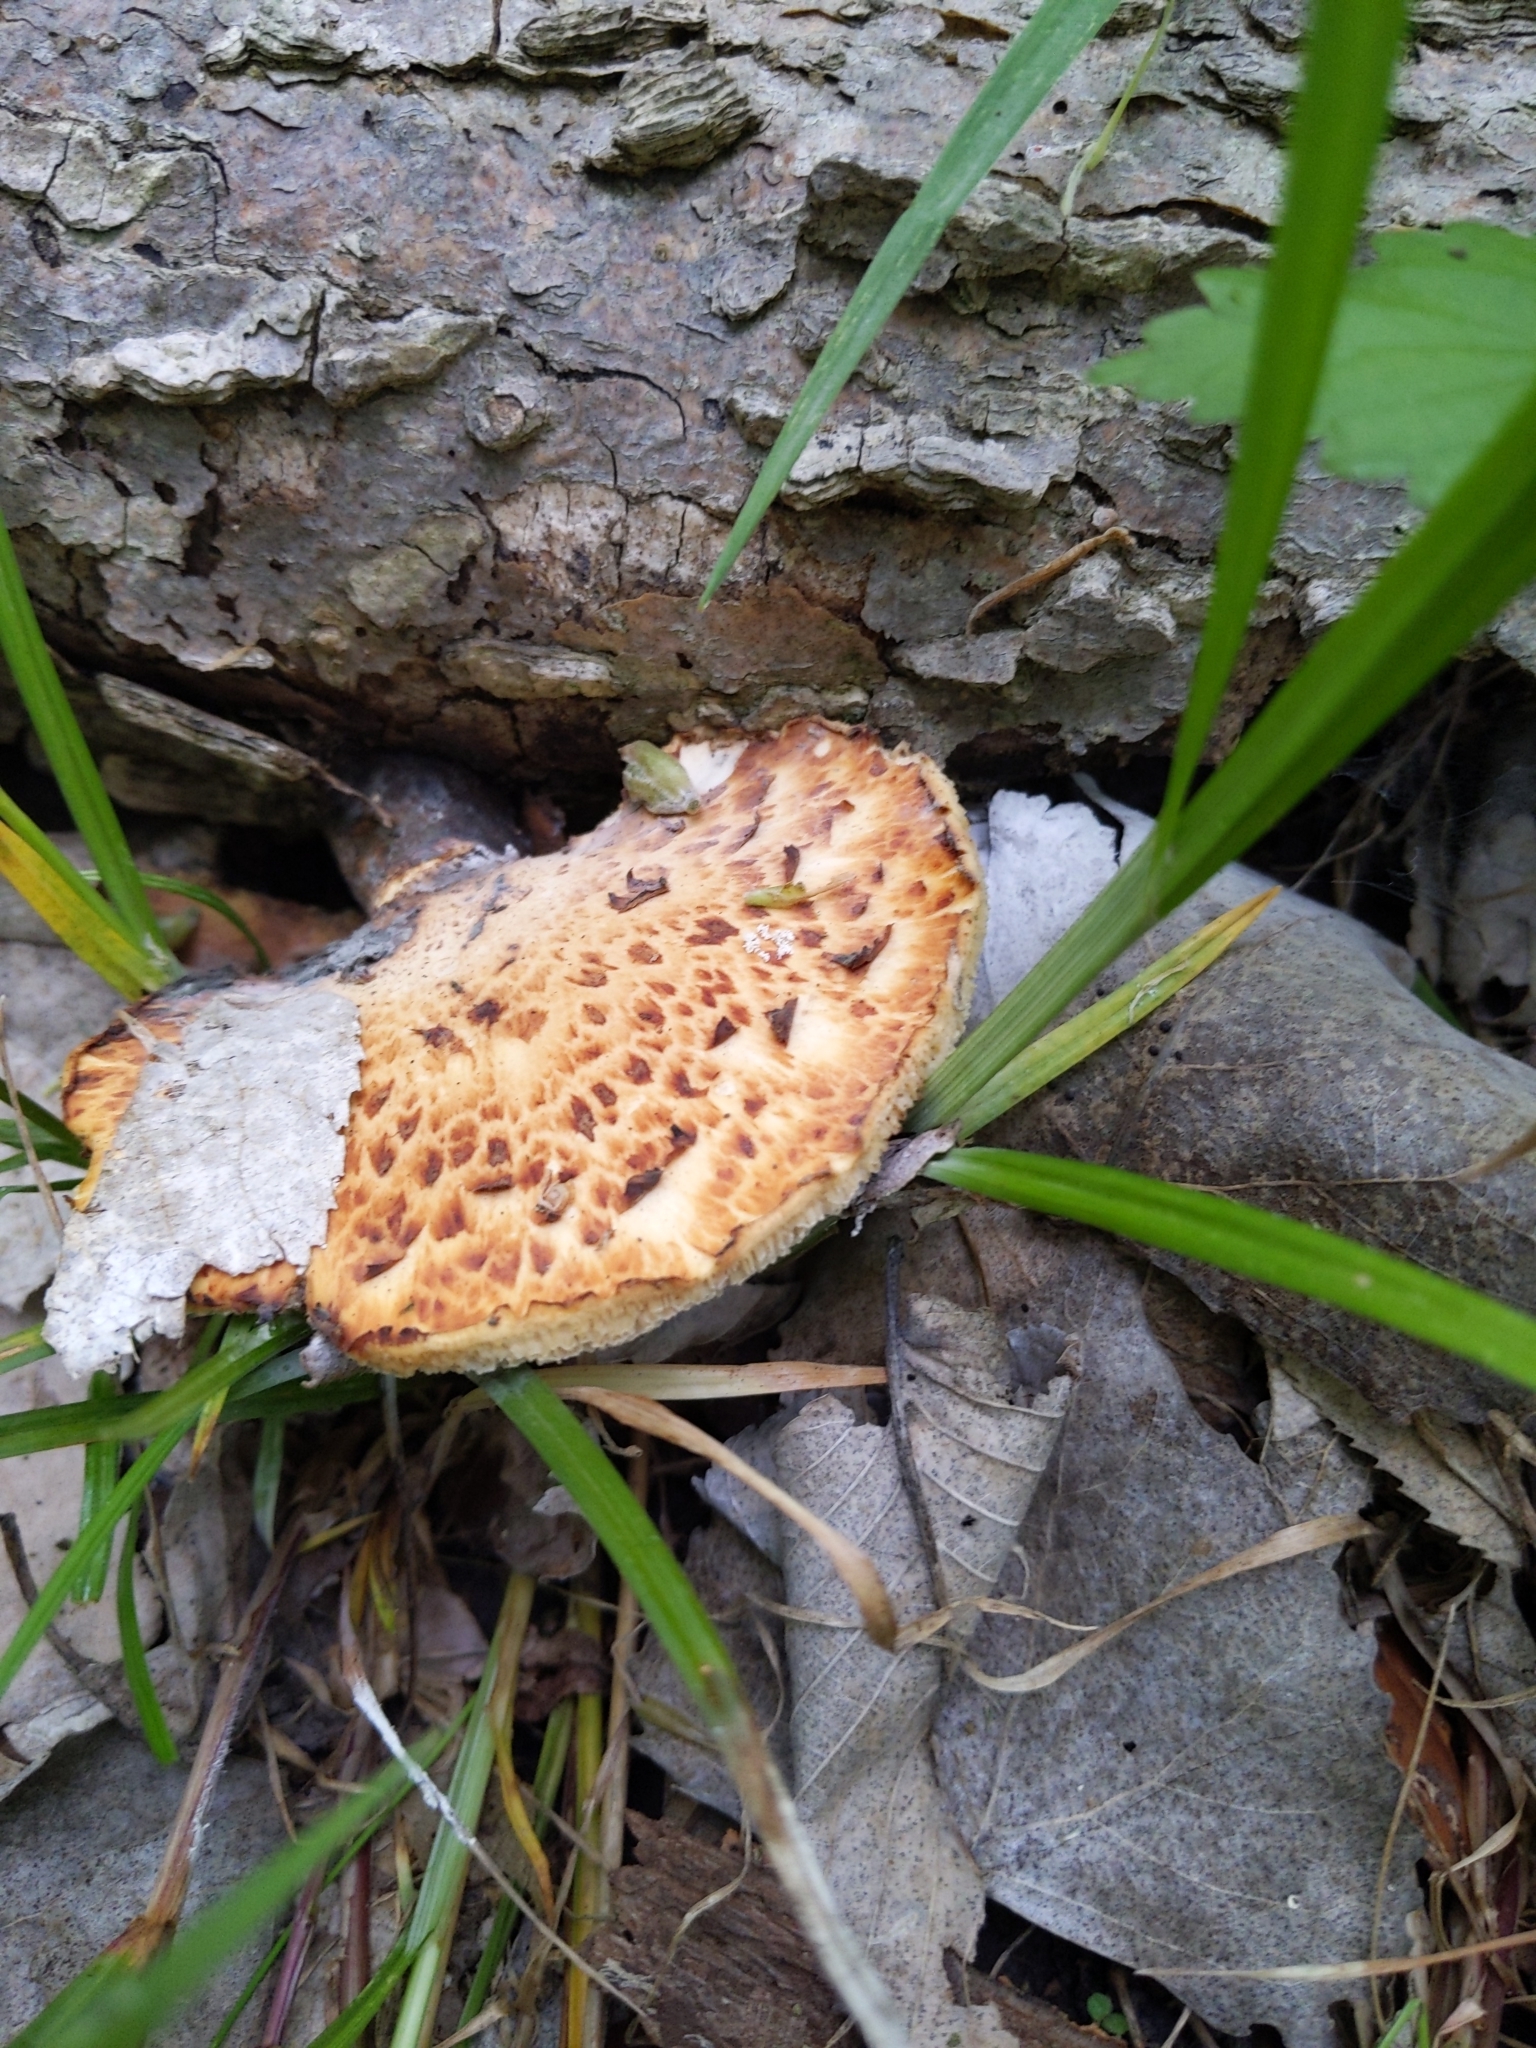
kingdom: Fungi
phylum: Basidiomycota
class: Agaricomycetes
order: Polyporales
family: Polyporaceae
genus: Cerioporus
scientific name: Cerioporus squamosus
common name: Dryad's saddle
